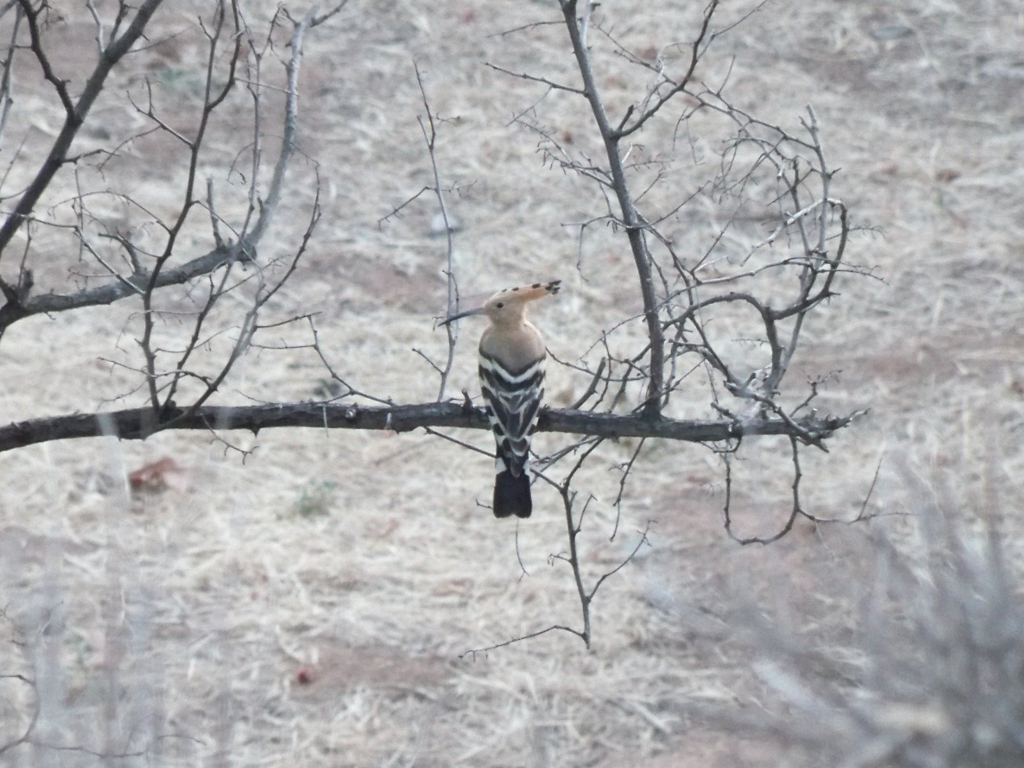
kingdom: Animalia
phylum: Chordata
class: Aves
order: Bucerotiformes
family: Upupidae
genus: Upupa
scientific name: Upupa epops
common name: Eurasian hoopoe
